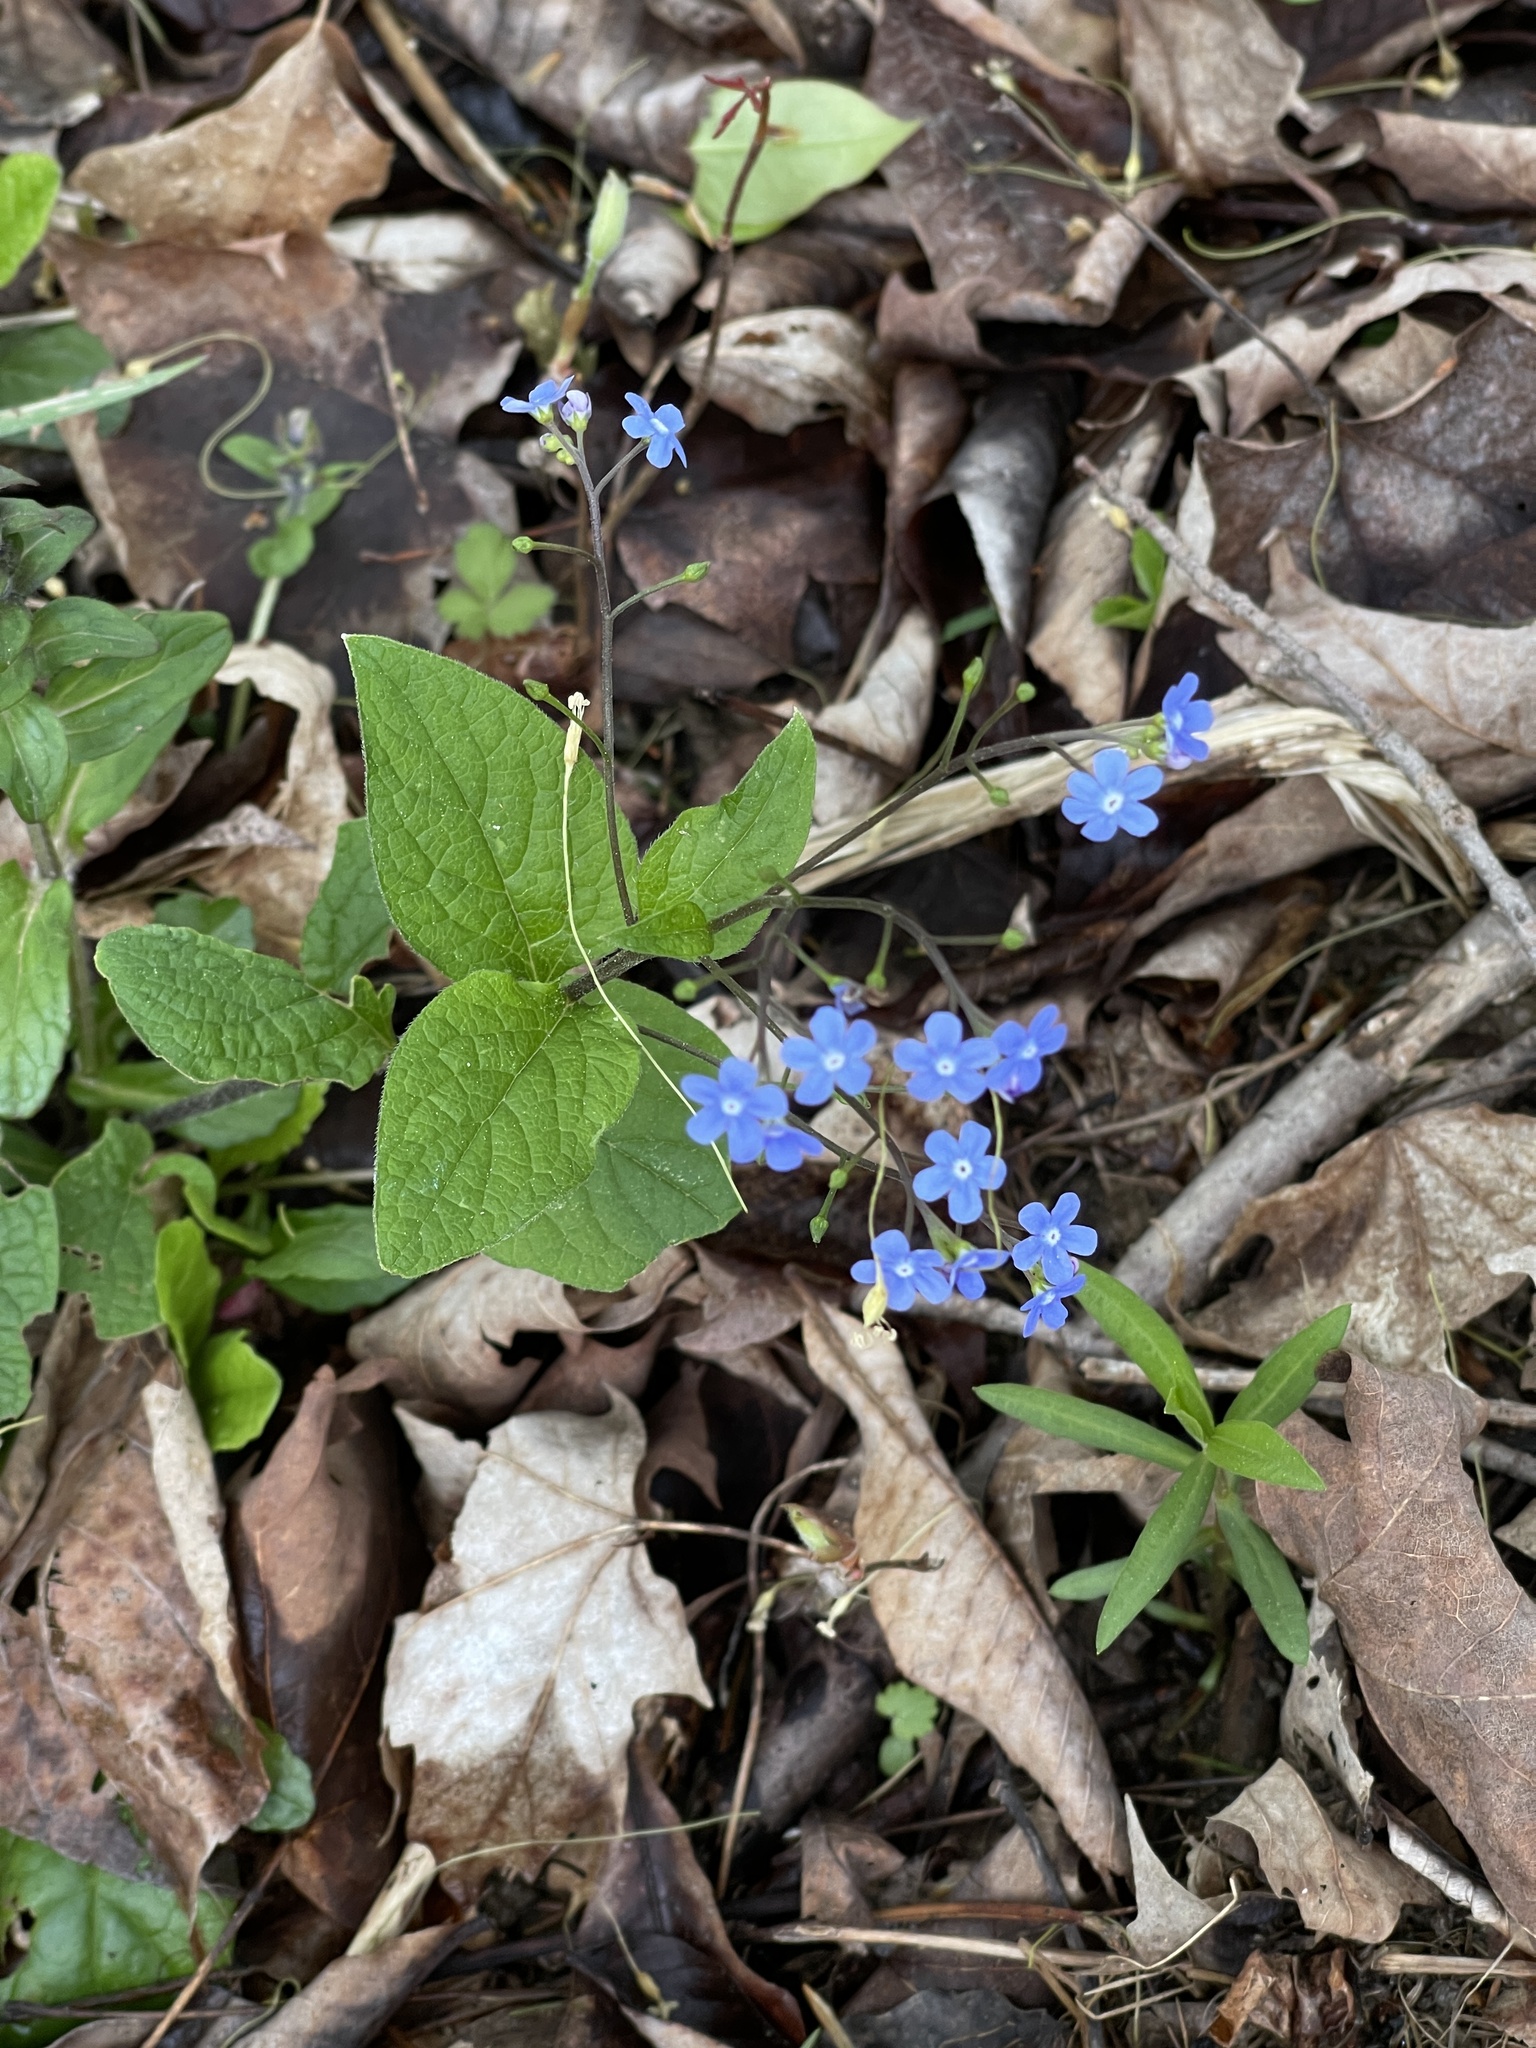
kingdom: Plantae
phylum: Tracheophyta
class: Magnoliopsida
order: Boraginales
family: Boraginaceae
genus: Brunnera
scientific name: Brunnera macrophylla
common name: Great forget-me-not
